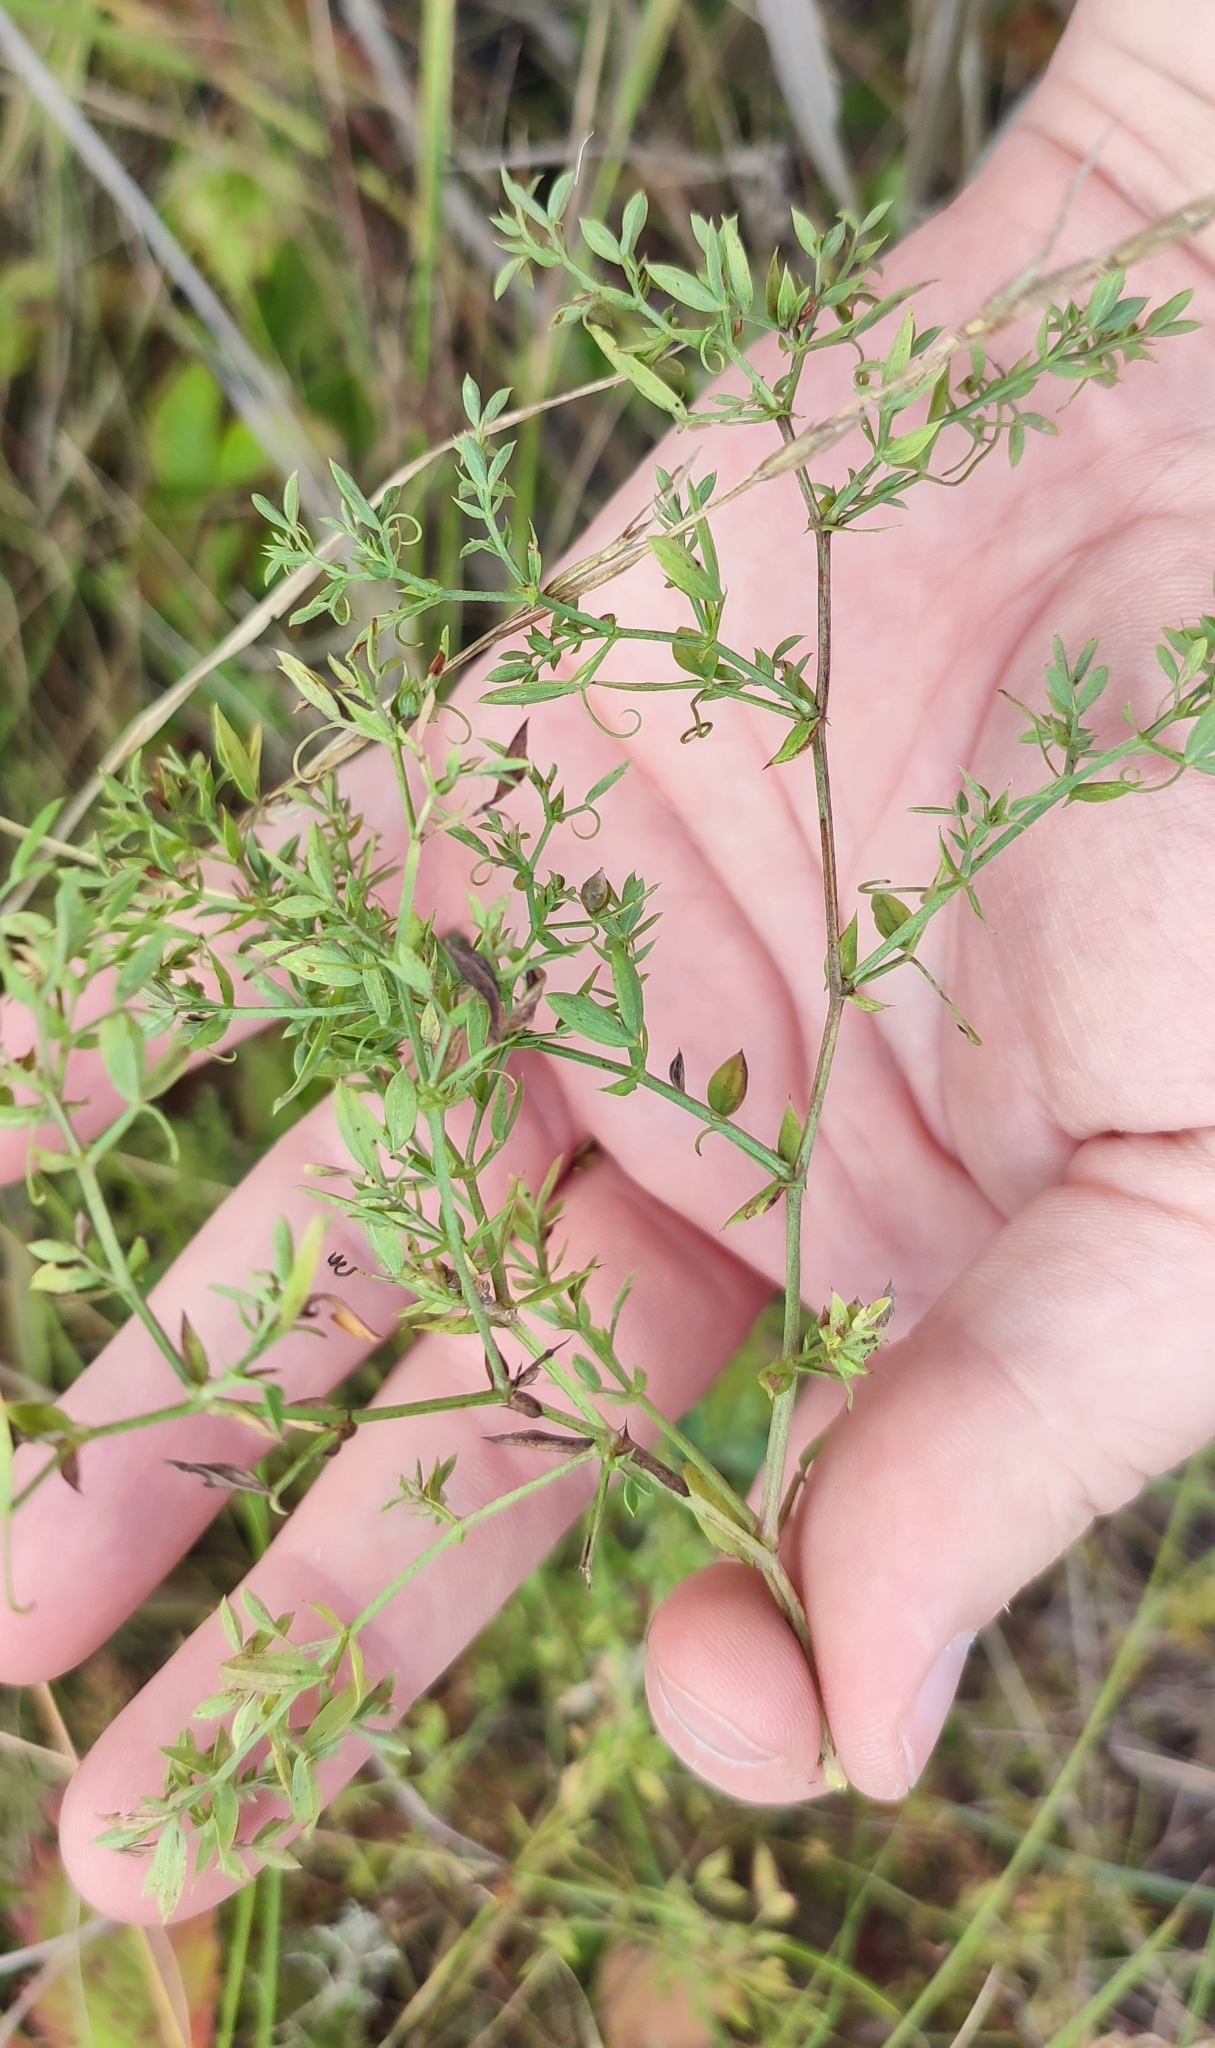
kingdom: Plantae
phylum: Tracheophyta
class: Magnoliopsida
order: Fabales
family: Fabaceae
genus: Lathyrus
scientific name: Lathyrus pratensis
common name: Meadow vetchling
